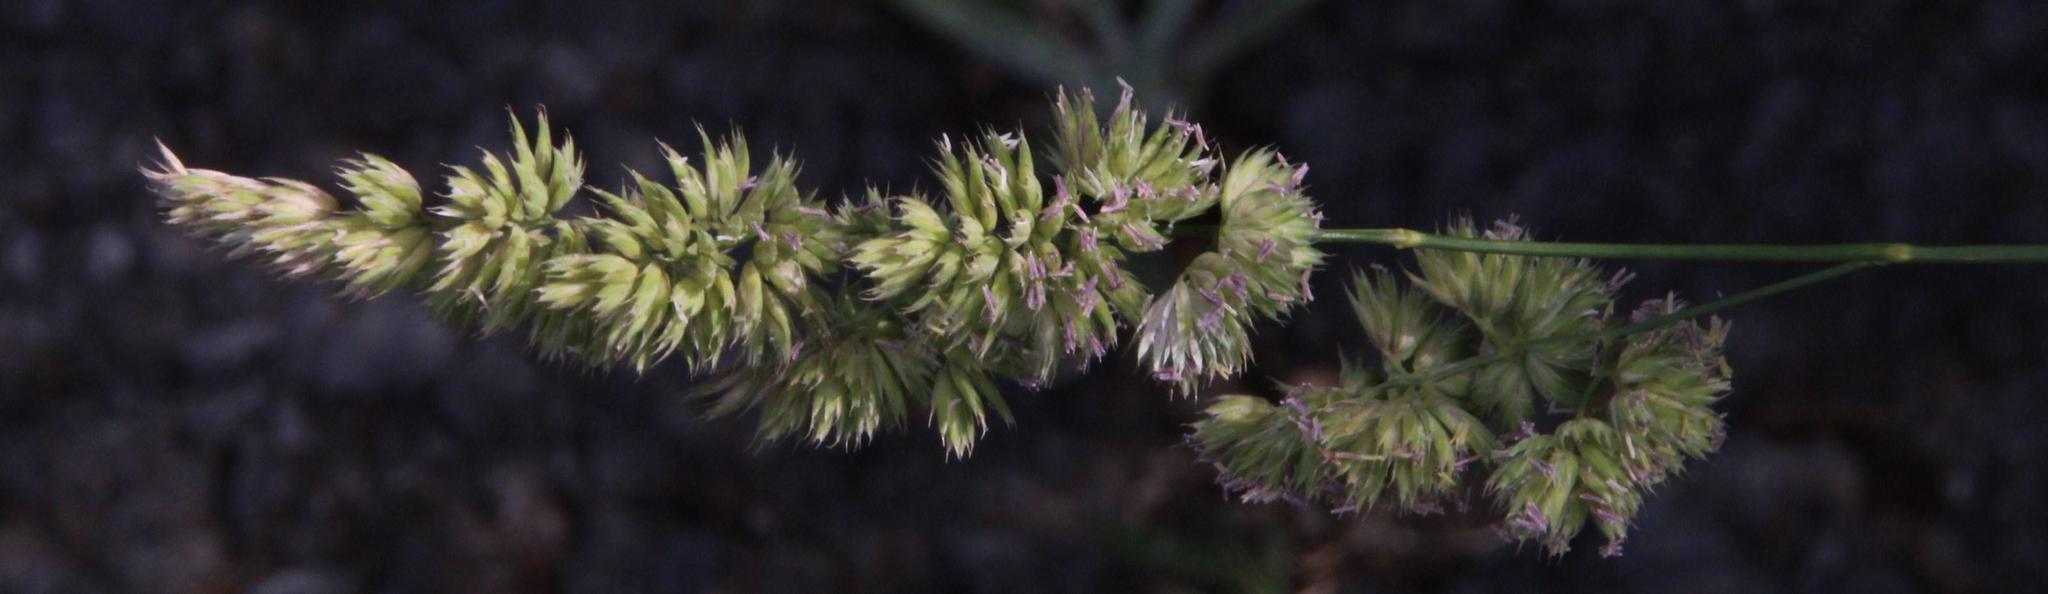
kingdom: Plantae
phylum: Tracheophyta
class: Liliopsida
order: Poales
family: Poaceae
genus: Dactylis
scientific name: Dactylis glomerata
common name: Orchardgrass
